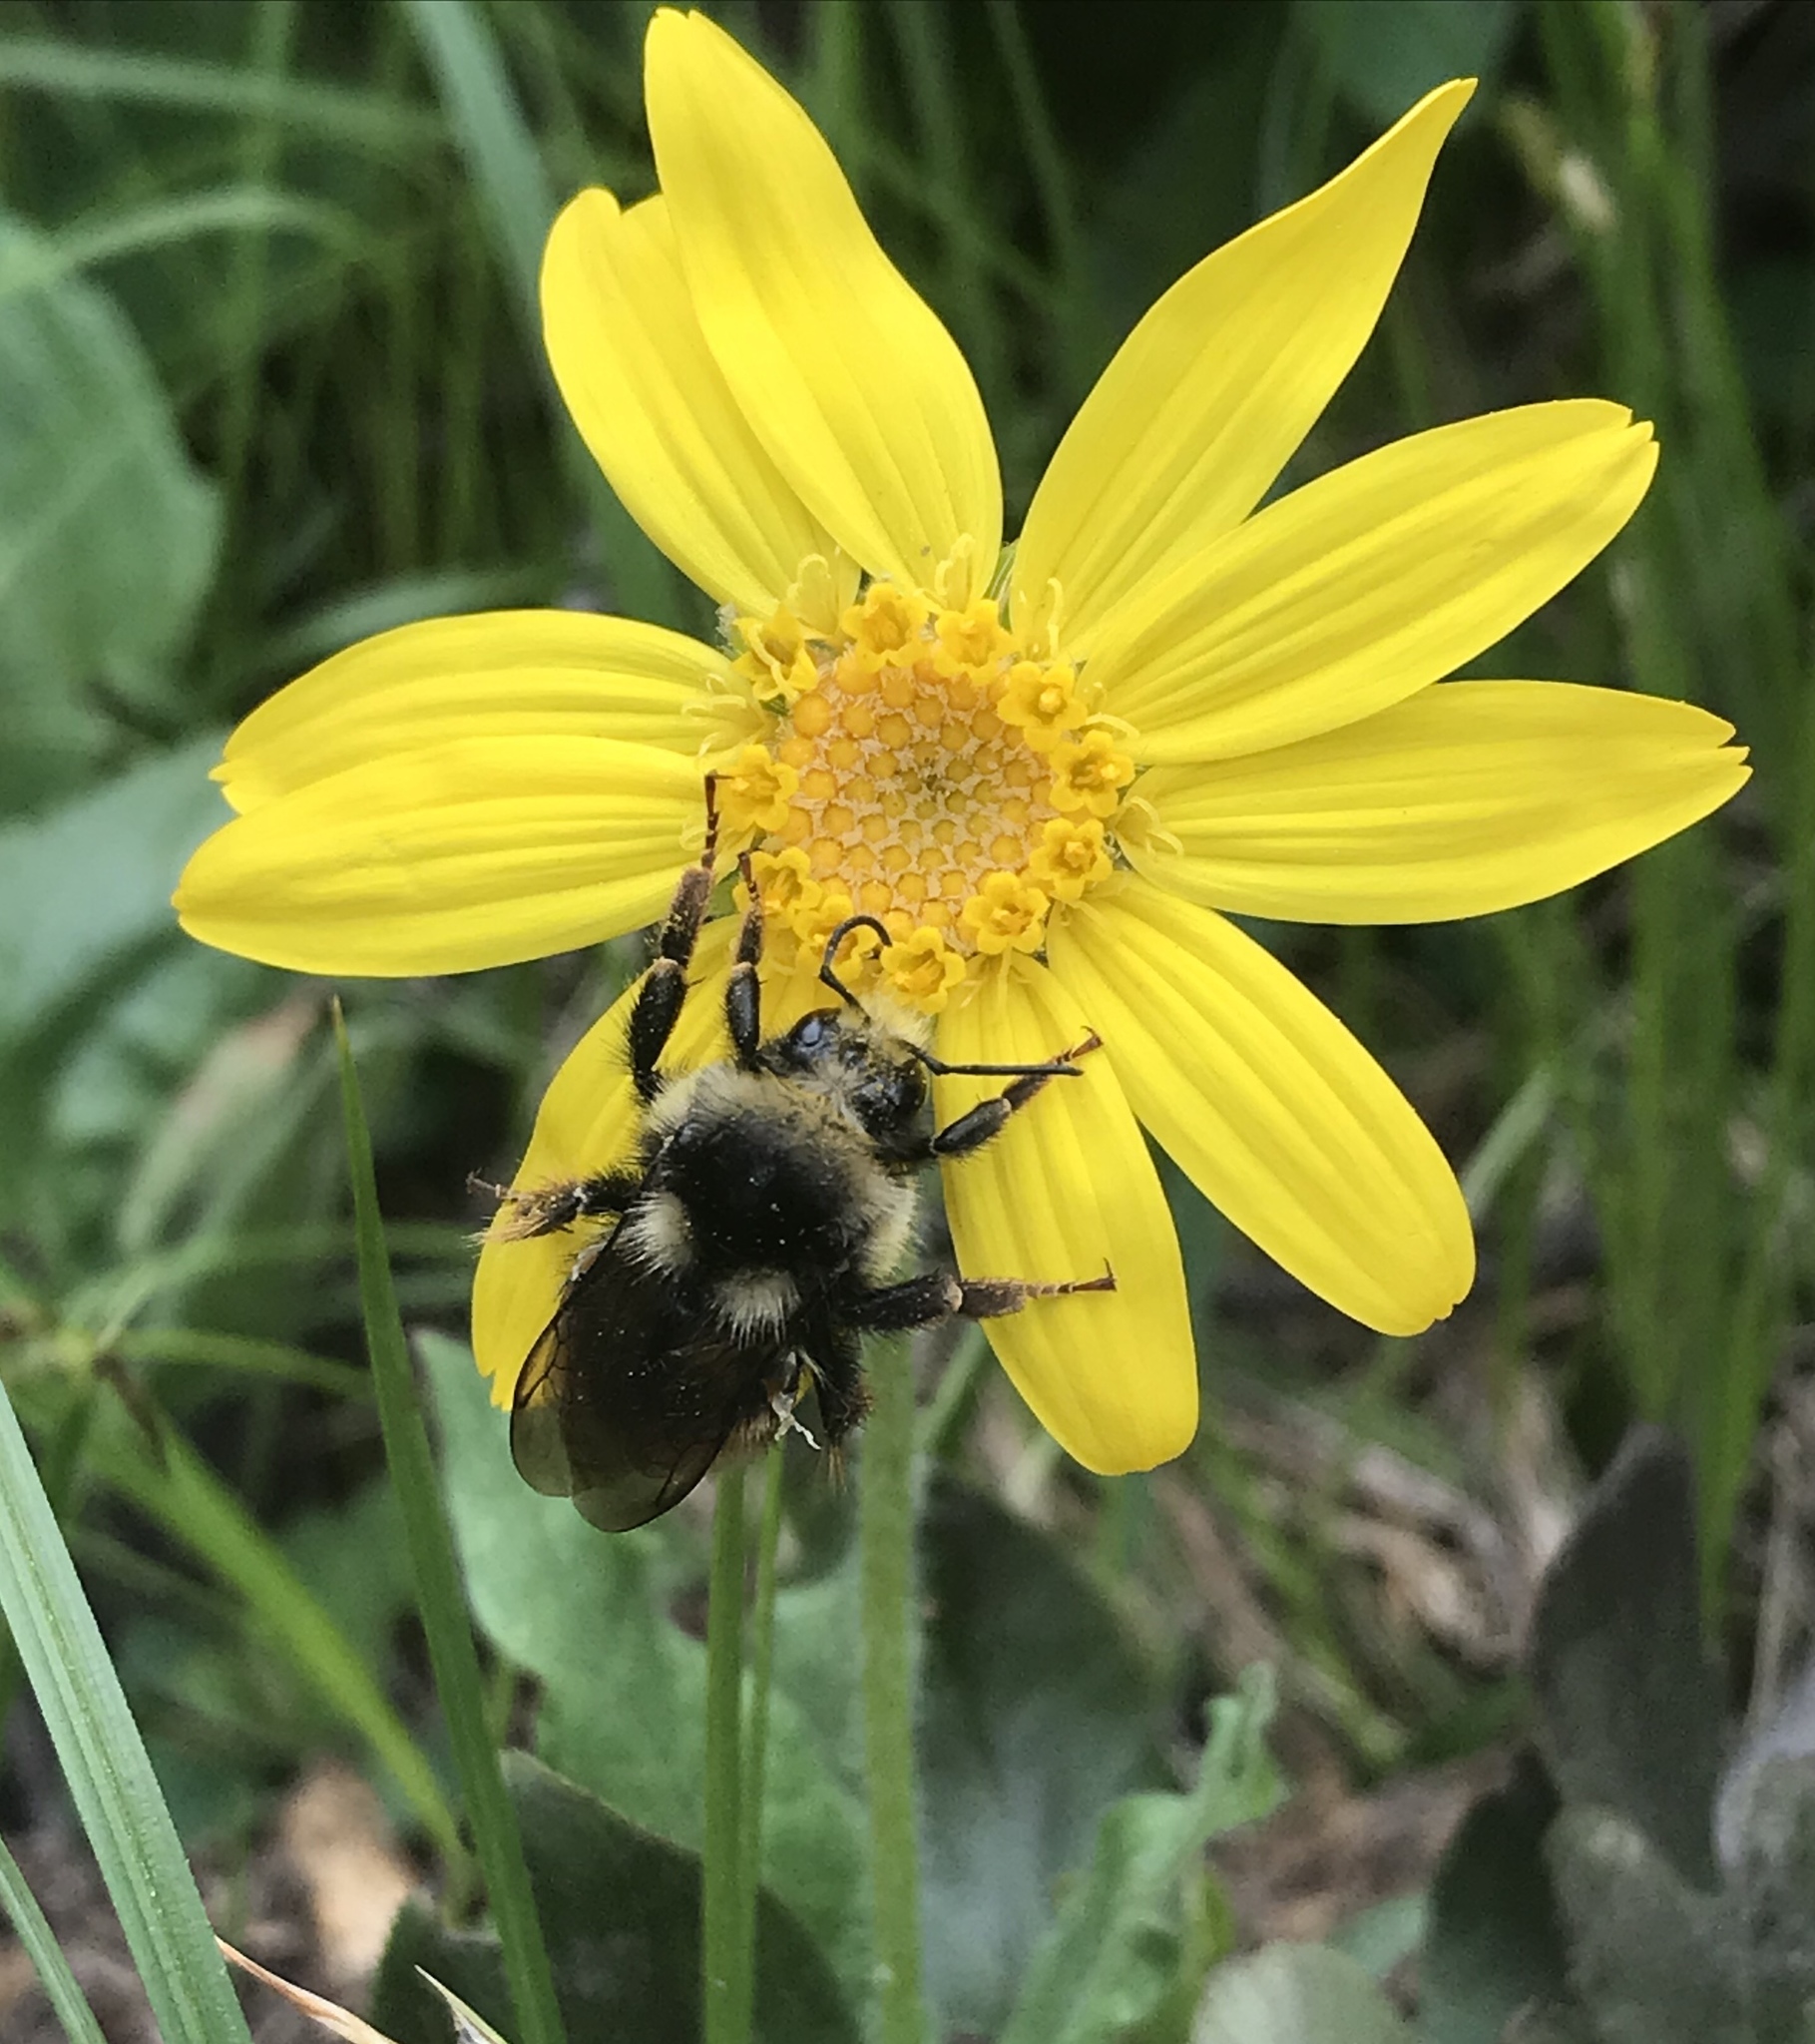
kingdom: Animalia
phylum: Arthropoda
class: Insecta
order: Hymenoptera
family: Apidae
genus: Bombus
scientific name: Bombus
